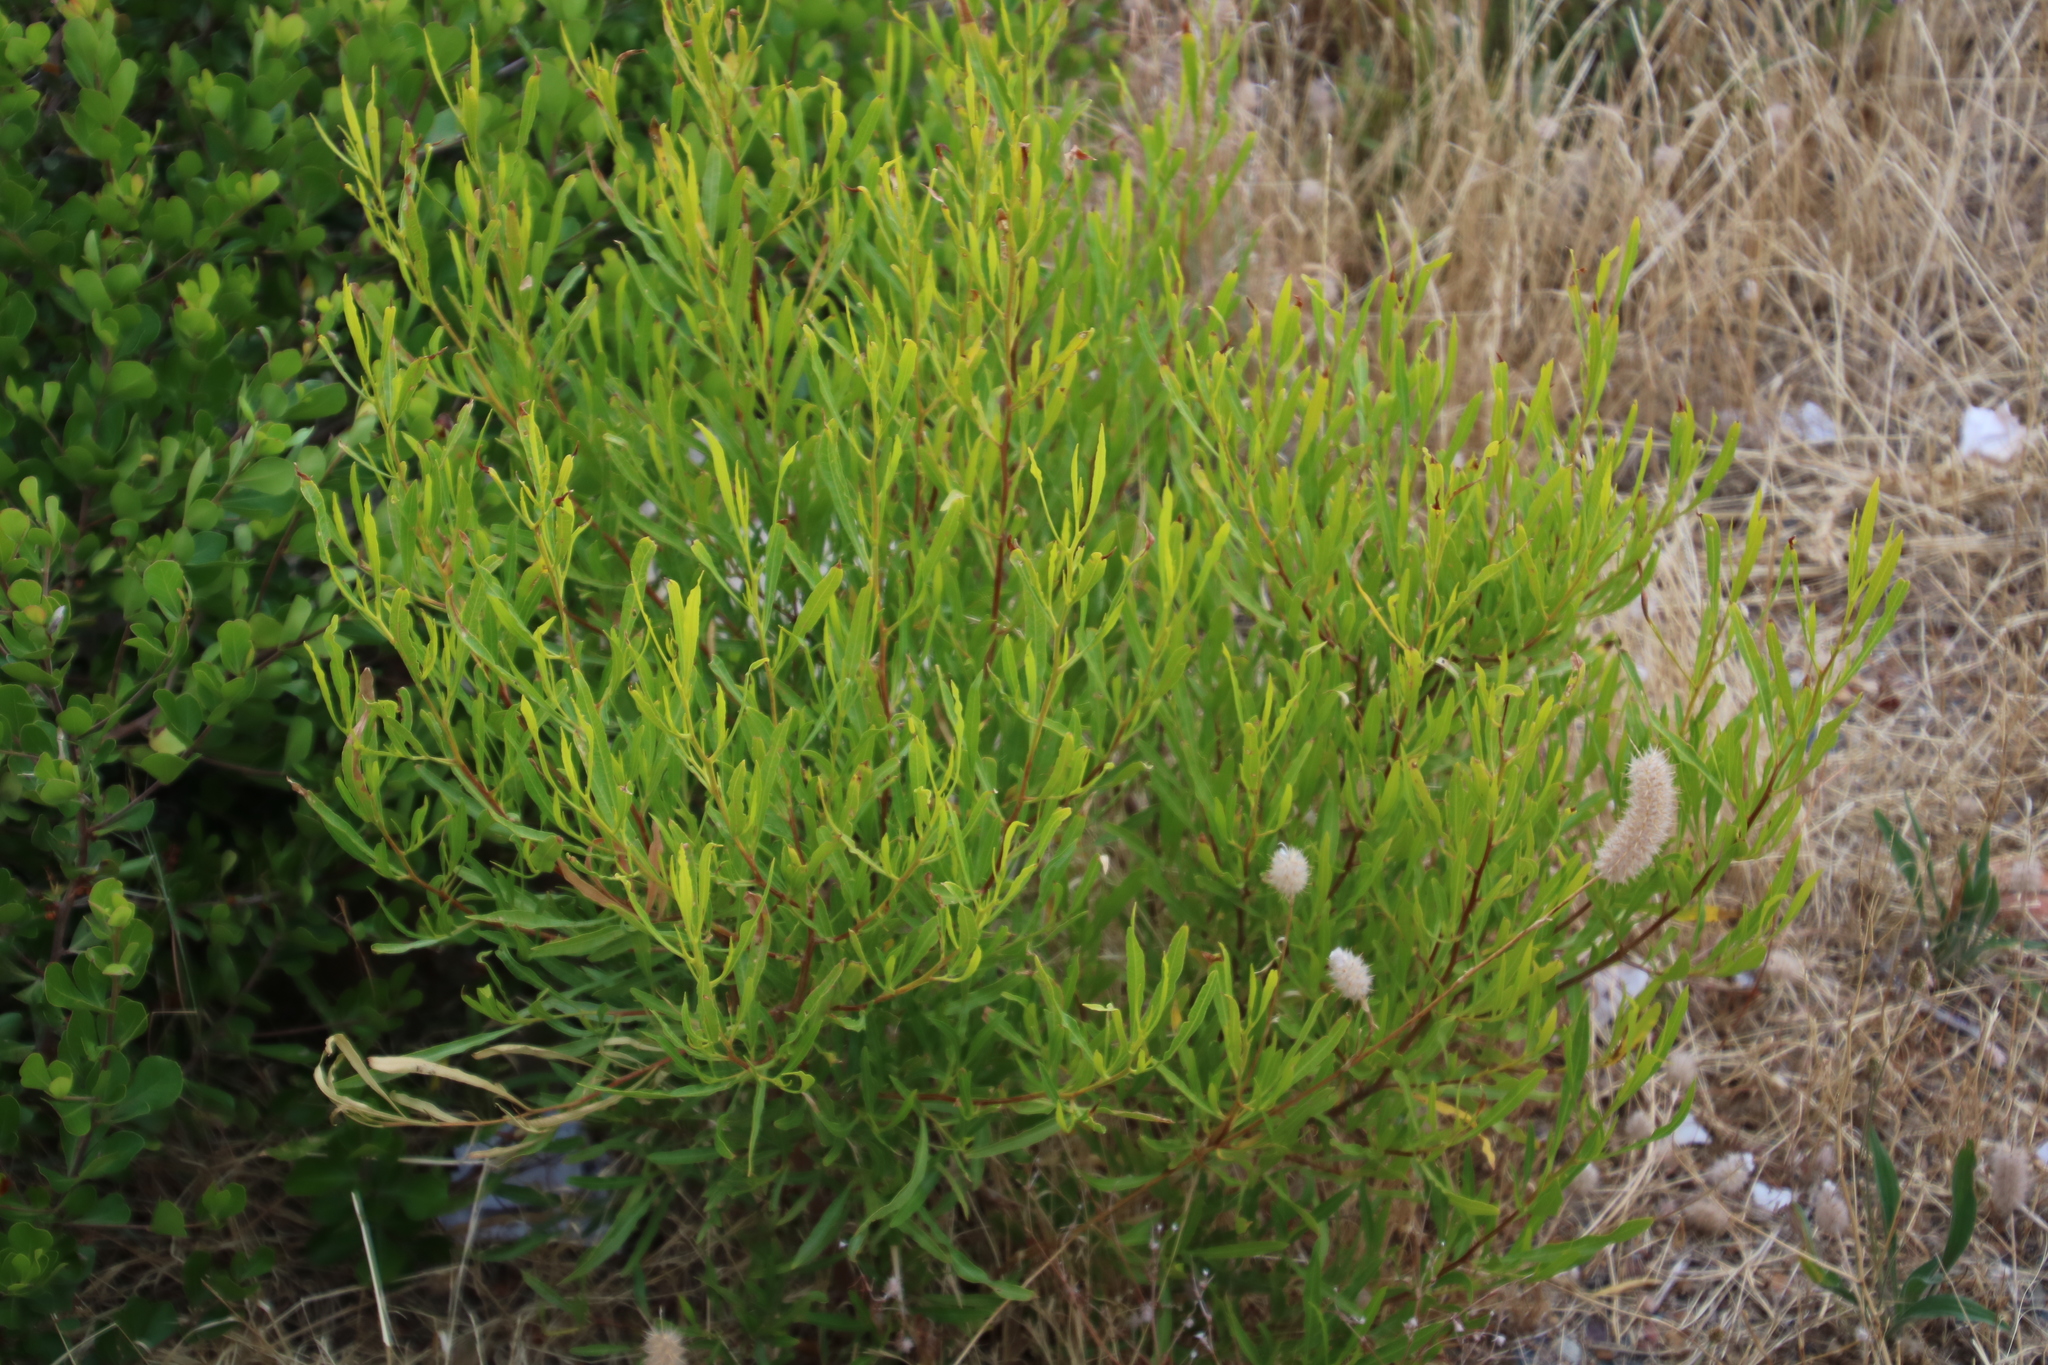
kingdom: Plantae
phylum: Tracheophyta
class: Magnoliopsida
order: Fabales
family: Fabaceae
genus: Acacia
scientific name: Acacia cyclops
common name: Coastal wattle
